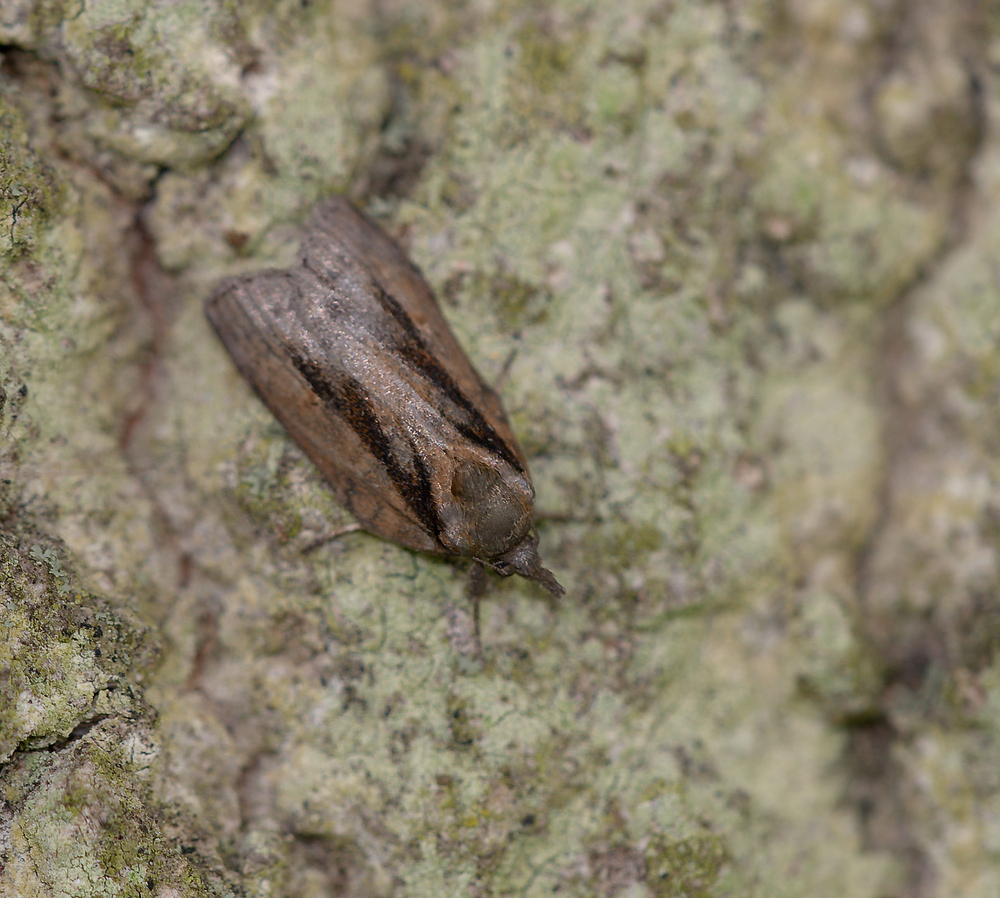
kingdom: Animalia
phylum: Arthropoda
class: Insecta
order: Lepidoptera
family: Nolidae
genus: Nycteola
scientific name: Nycteola revayana
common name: Oak nycteoline
